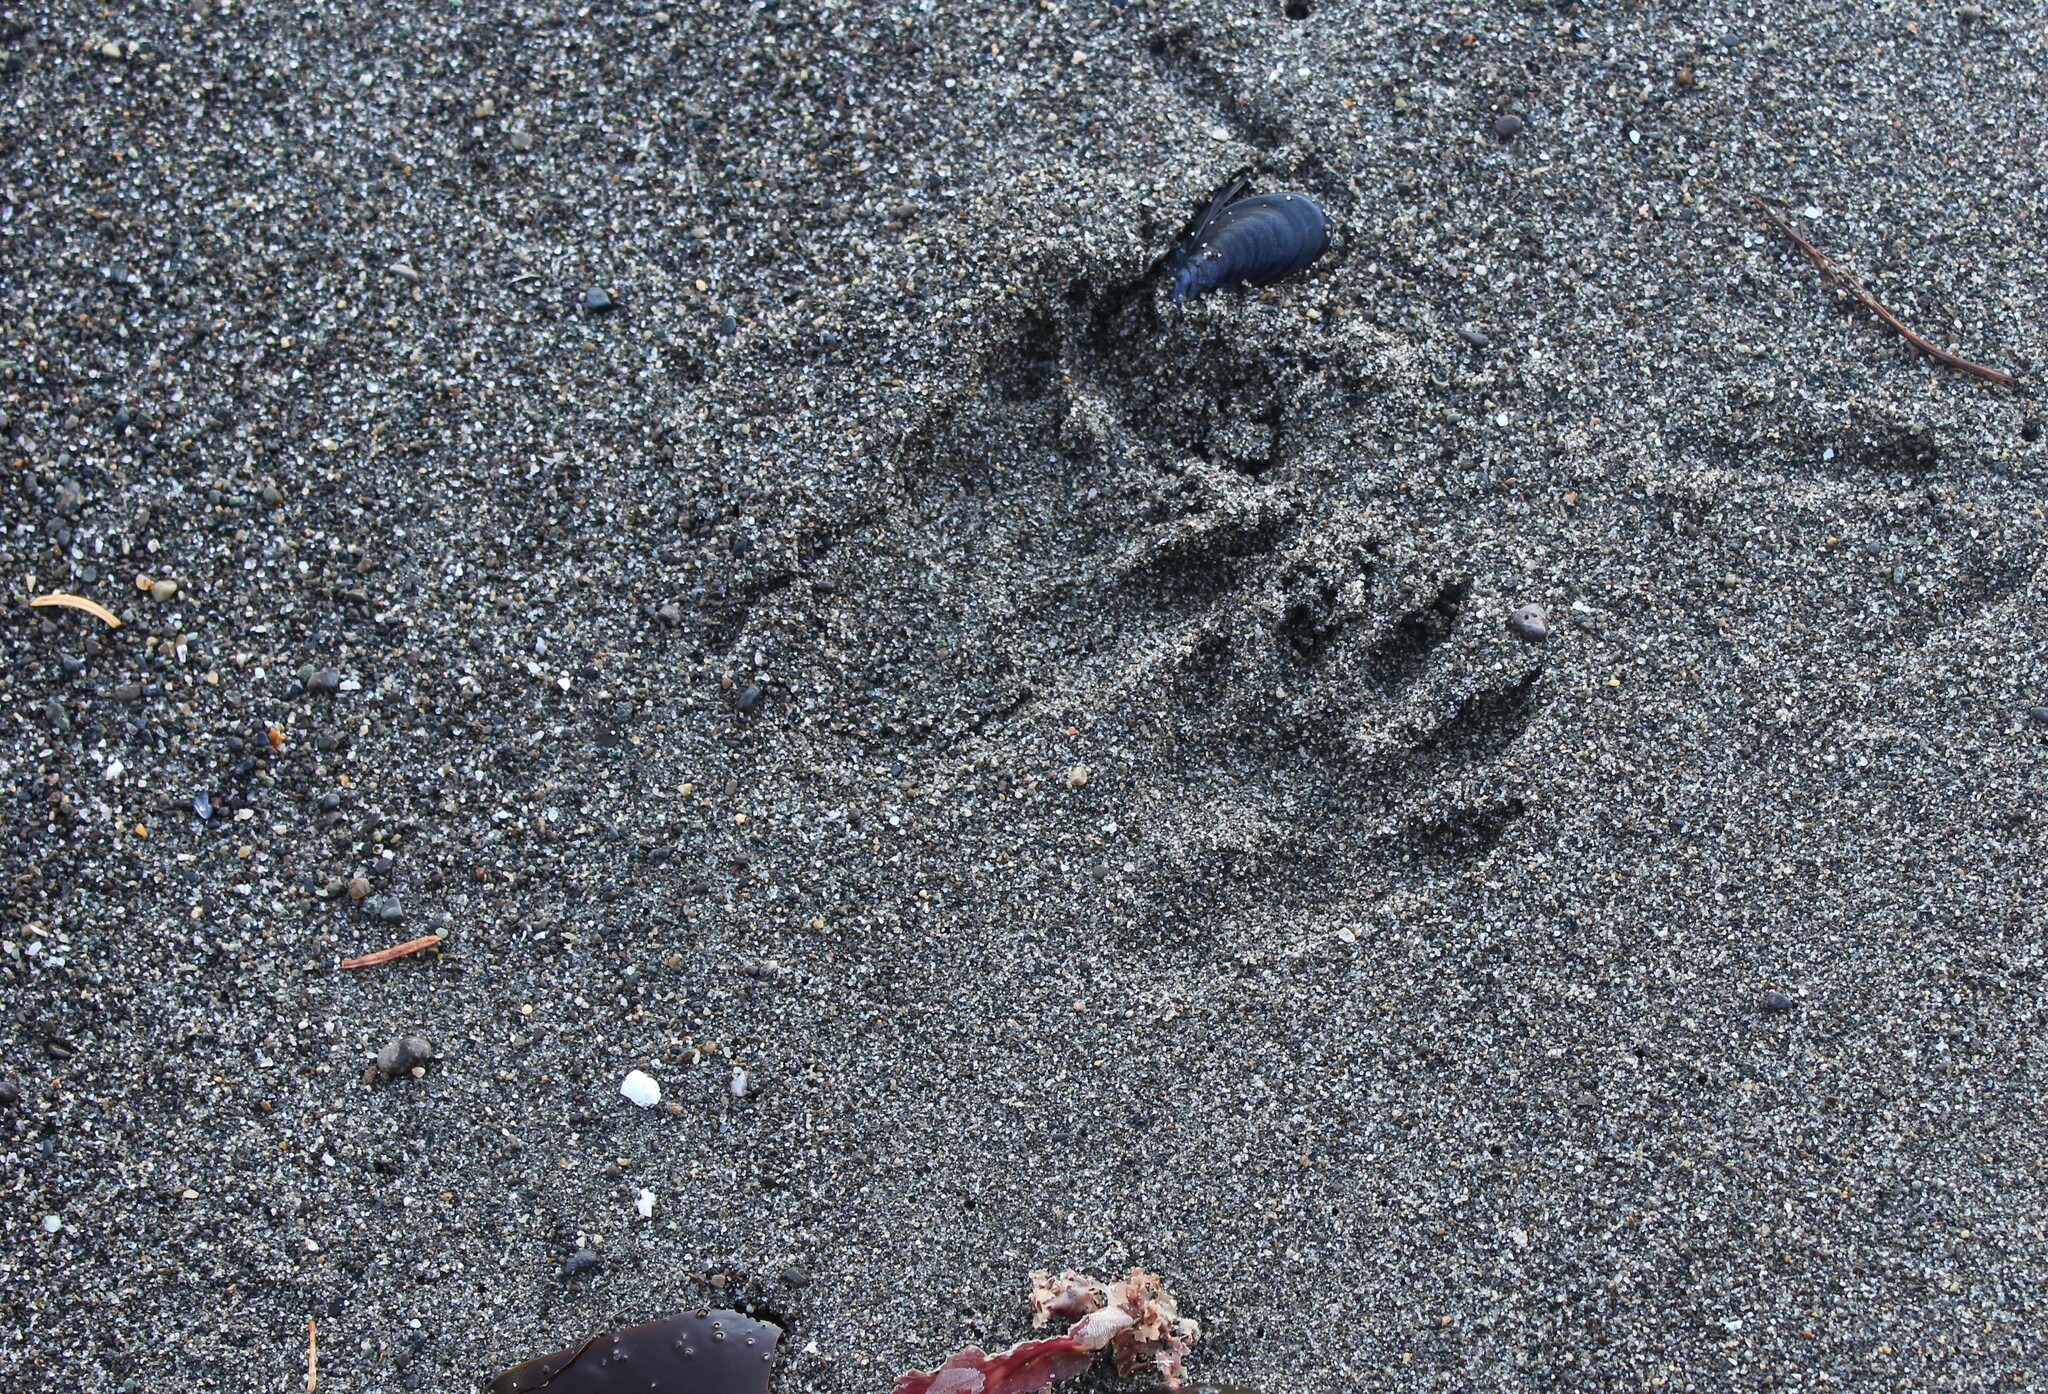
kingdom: Animalia
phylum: Chordata
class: Mammalia
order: Carnivora
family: Procyonidae
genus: Procyon
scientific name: Procyon lotor
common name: Raccoon
